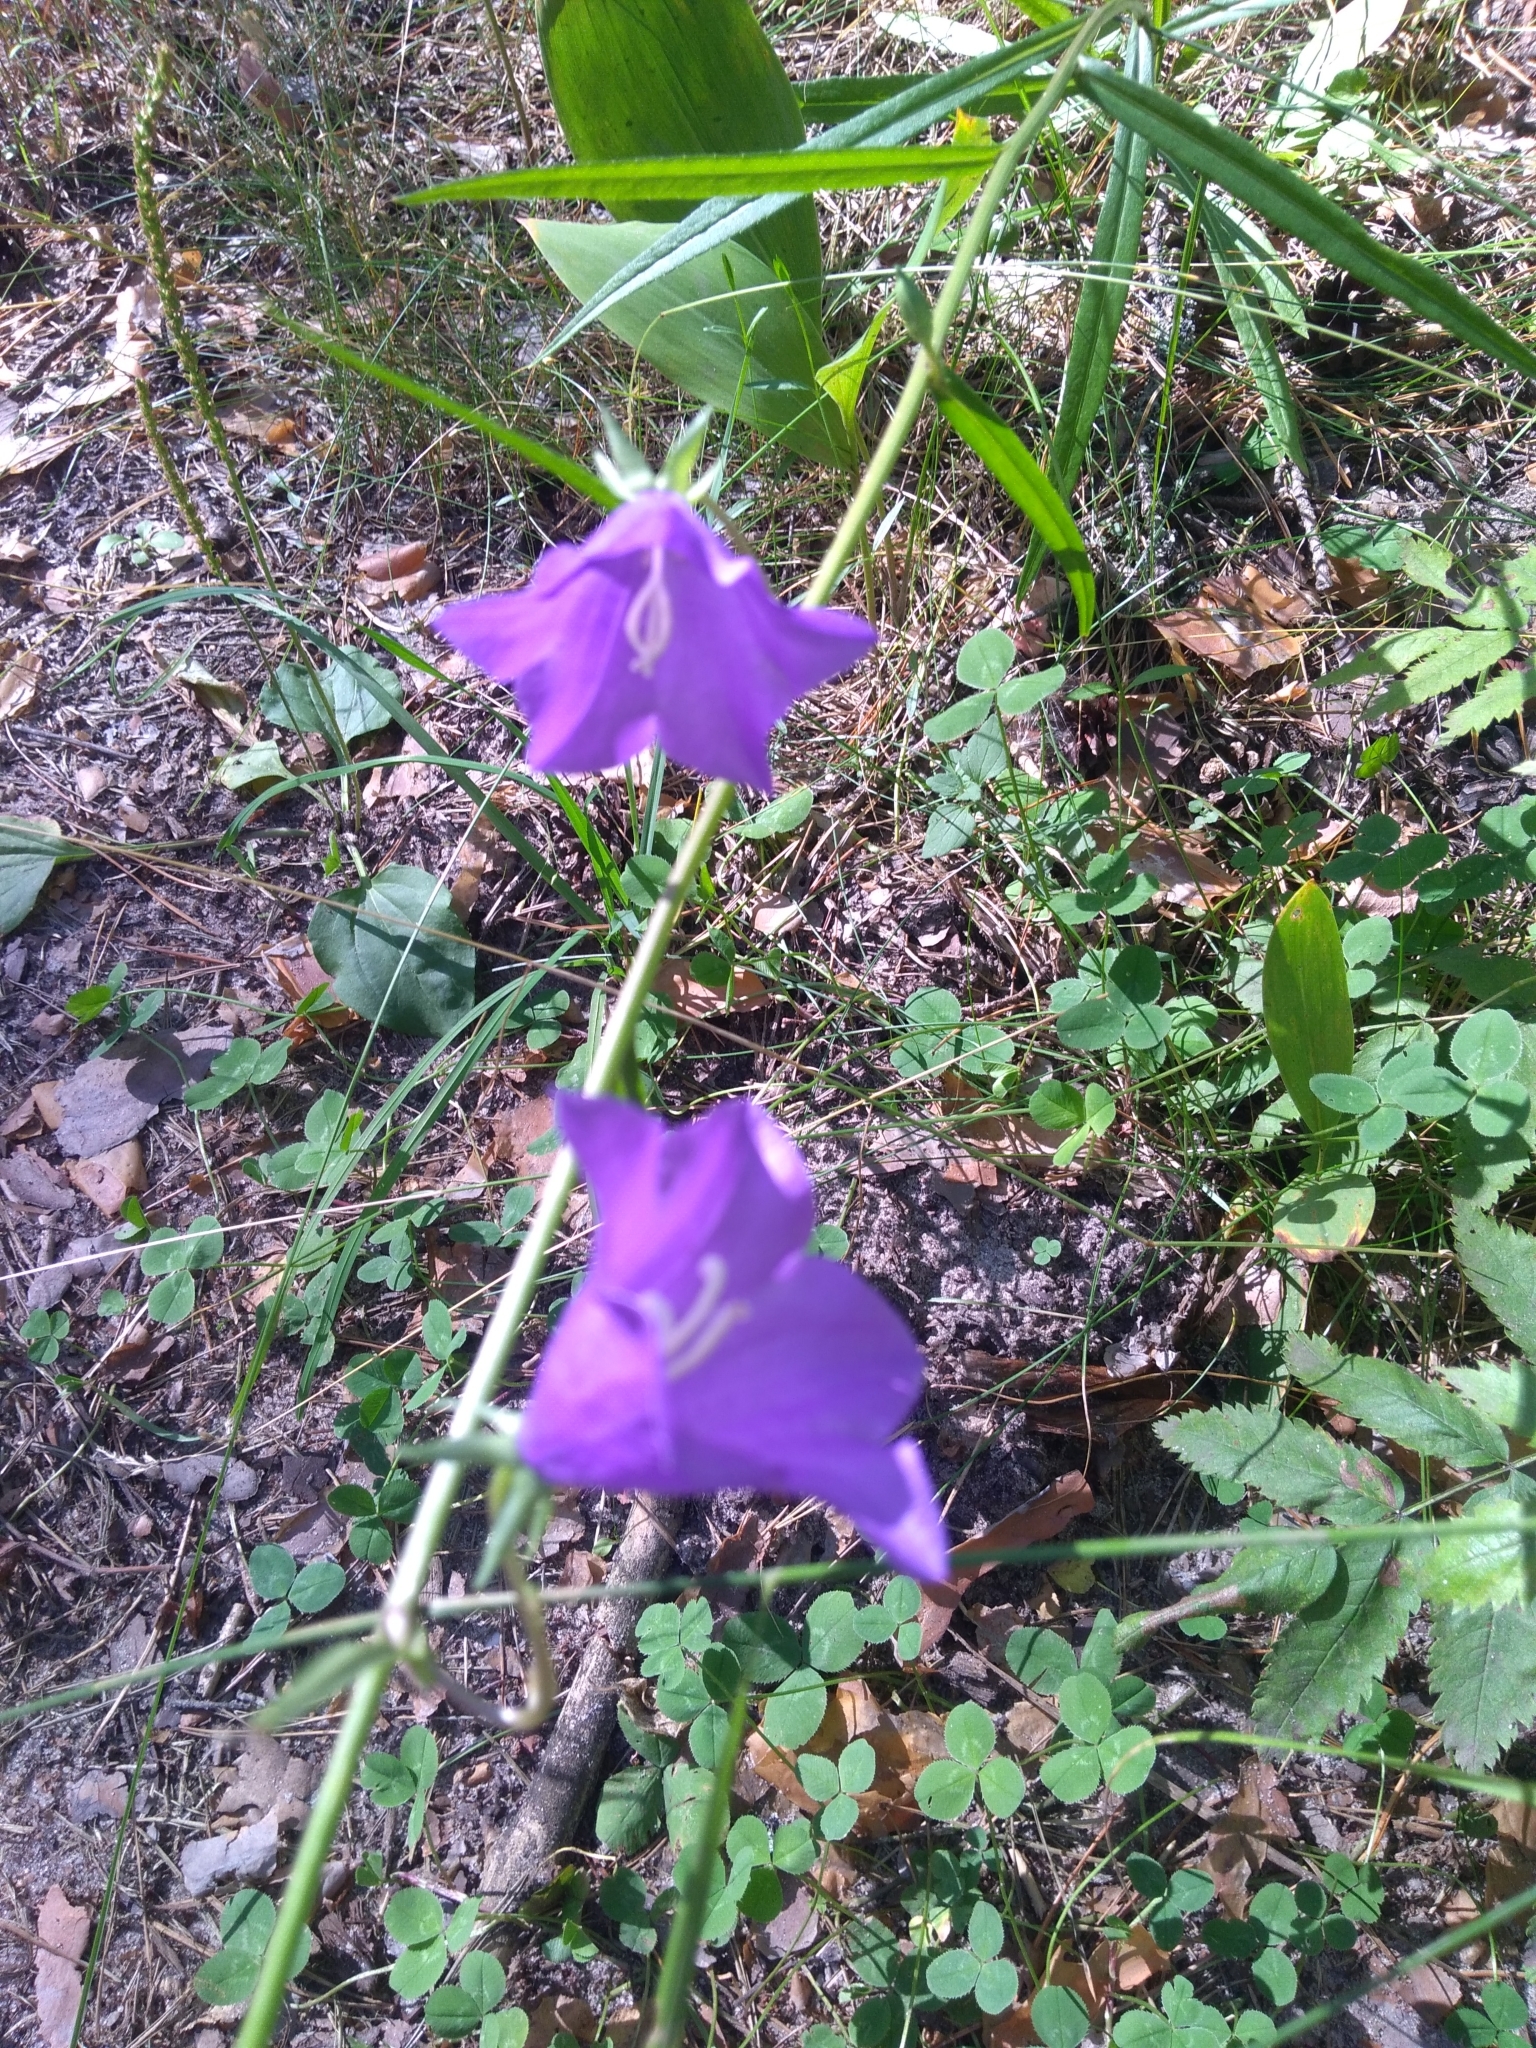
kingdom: Plantae
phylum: Tracheophyta
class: Magnoliopsida
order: Asterales
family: Campanulaceae
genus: Campanula
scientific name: Campanula persicifolia
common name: Peach-leaved bellflower
